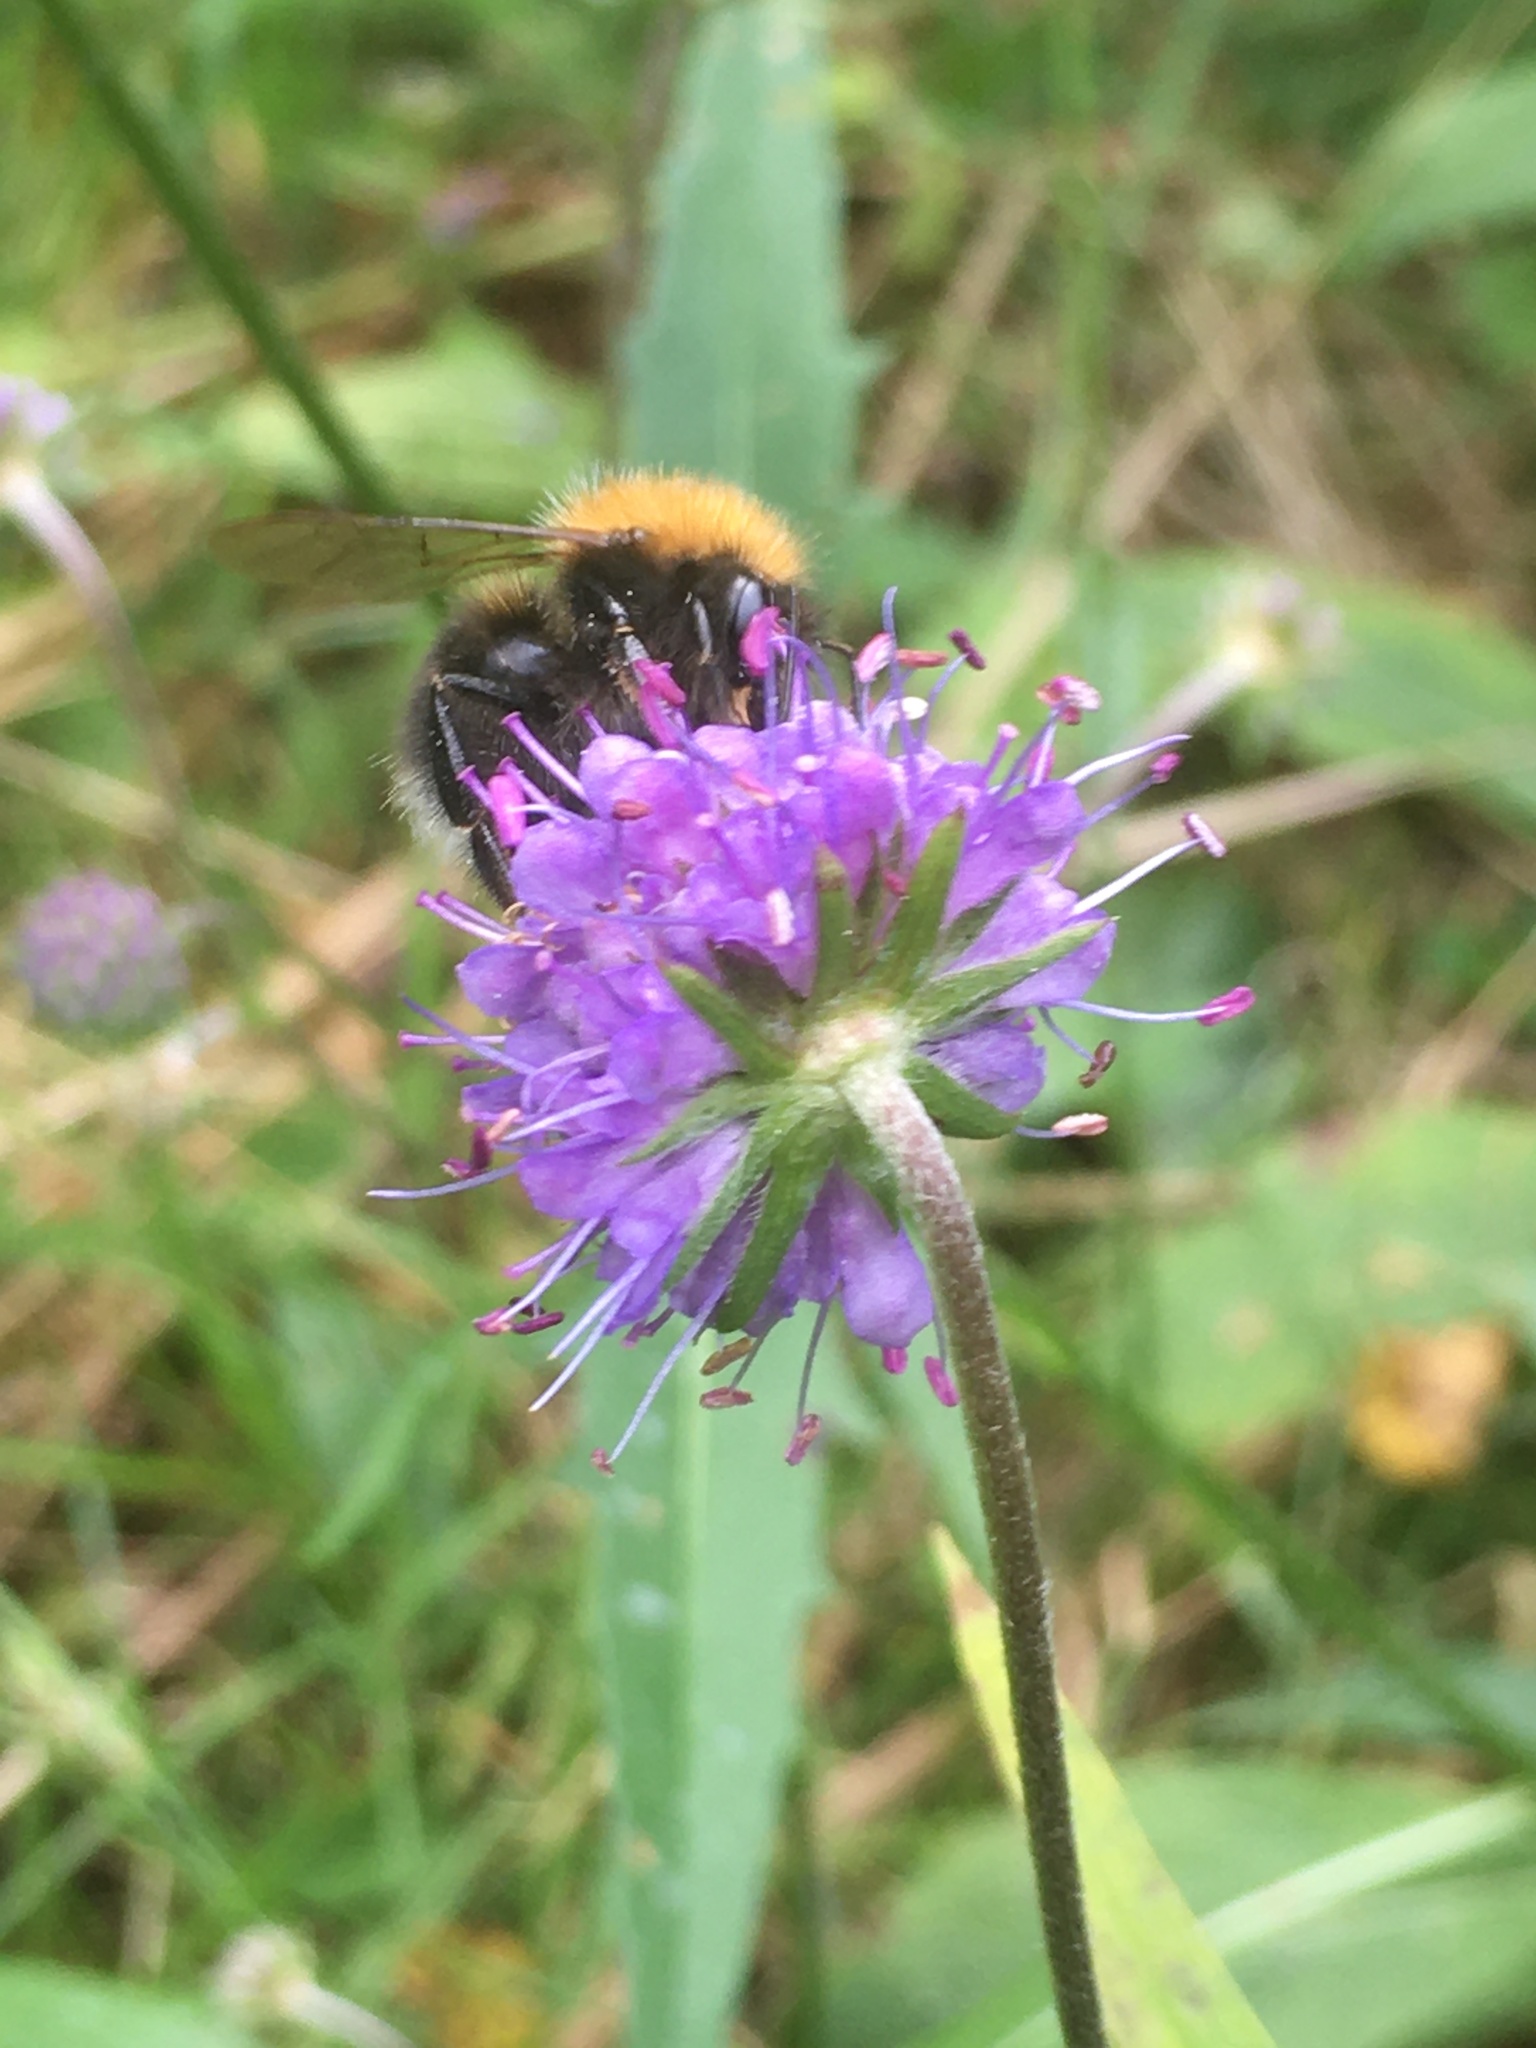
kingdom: Animalia
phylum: Arthropoda
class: Insecta
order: Hymenoptera
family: Apidae
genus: Bombus
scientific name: Bombus hypnorum
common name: New garden bumblebee
